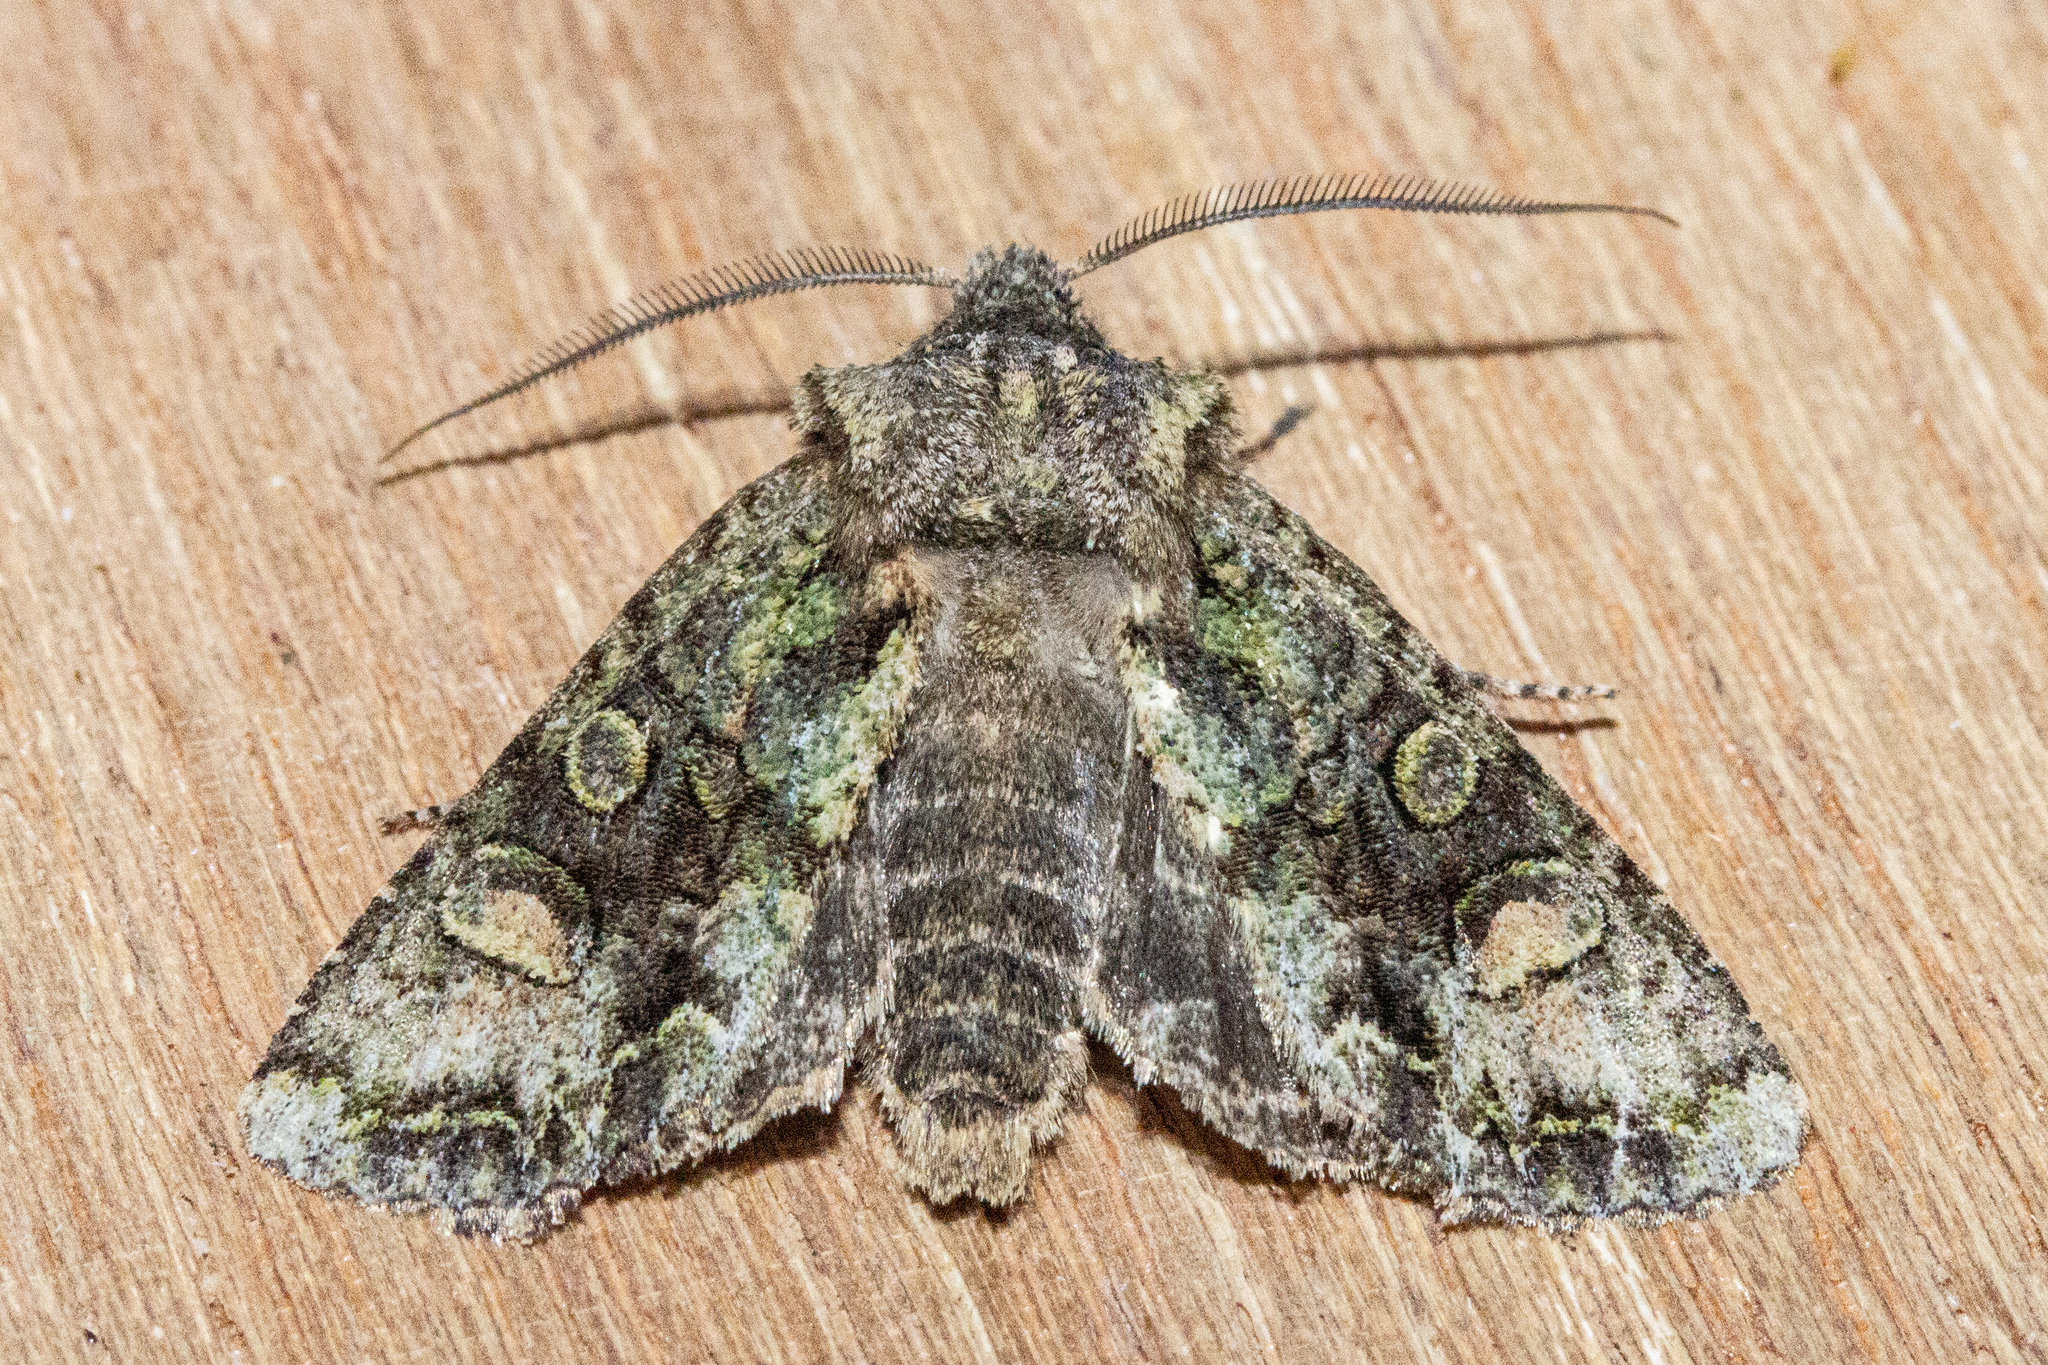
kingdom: Animalia
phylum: Arthropoda
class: Insecta
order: Lepidoptera
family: Noctuidae
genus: Ichneutica
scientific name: Ichneutica skelloni
